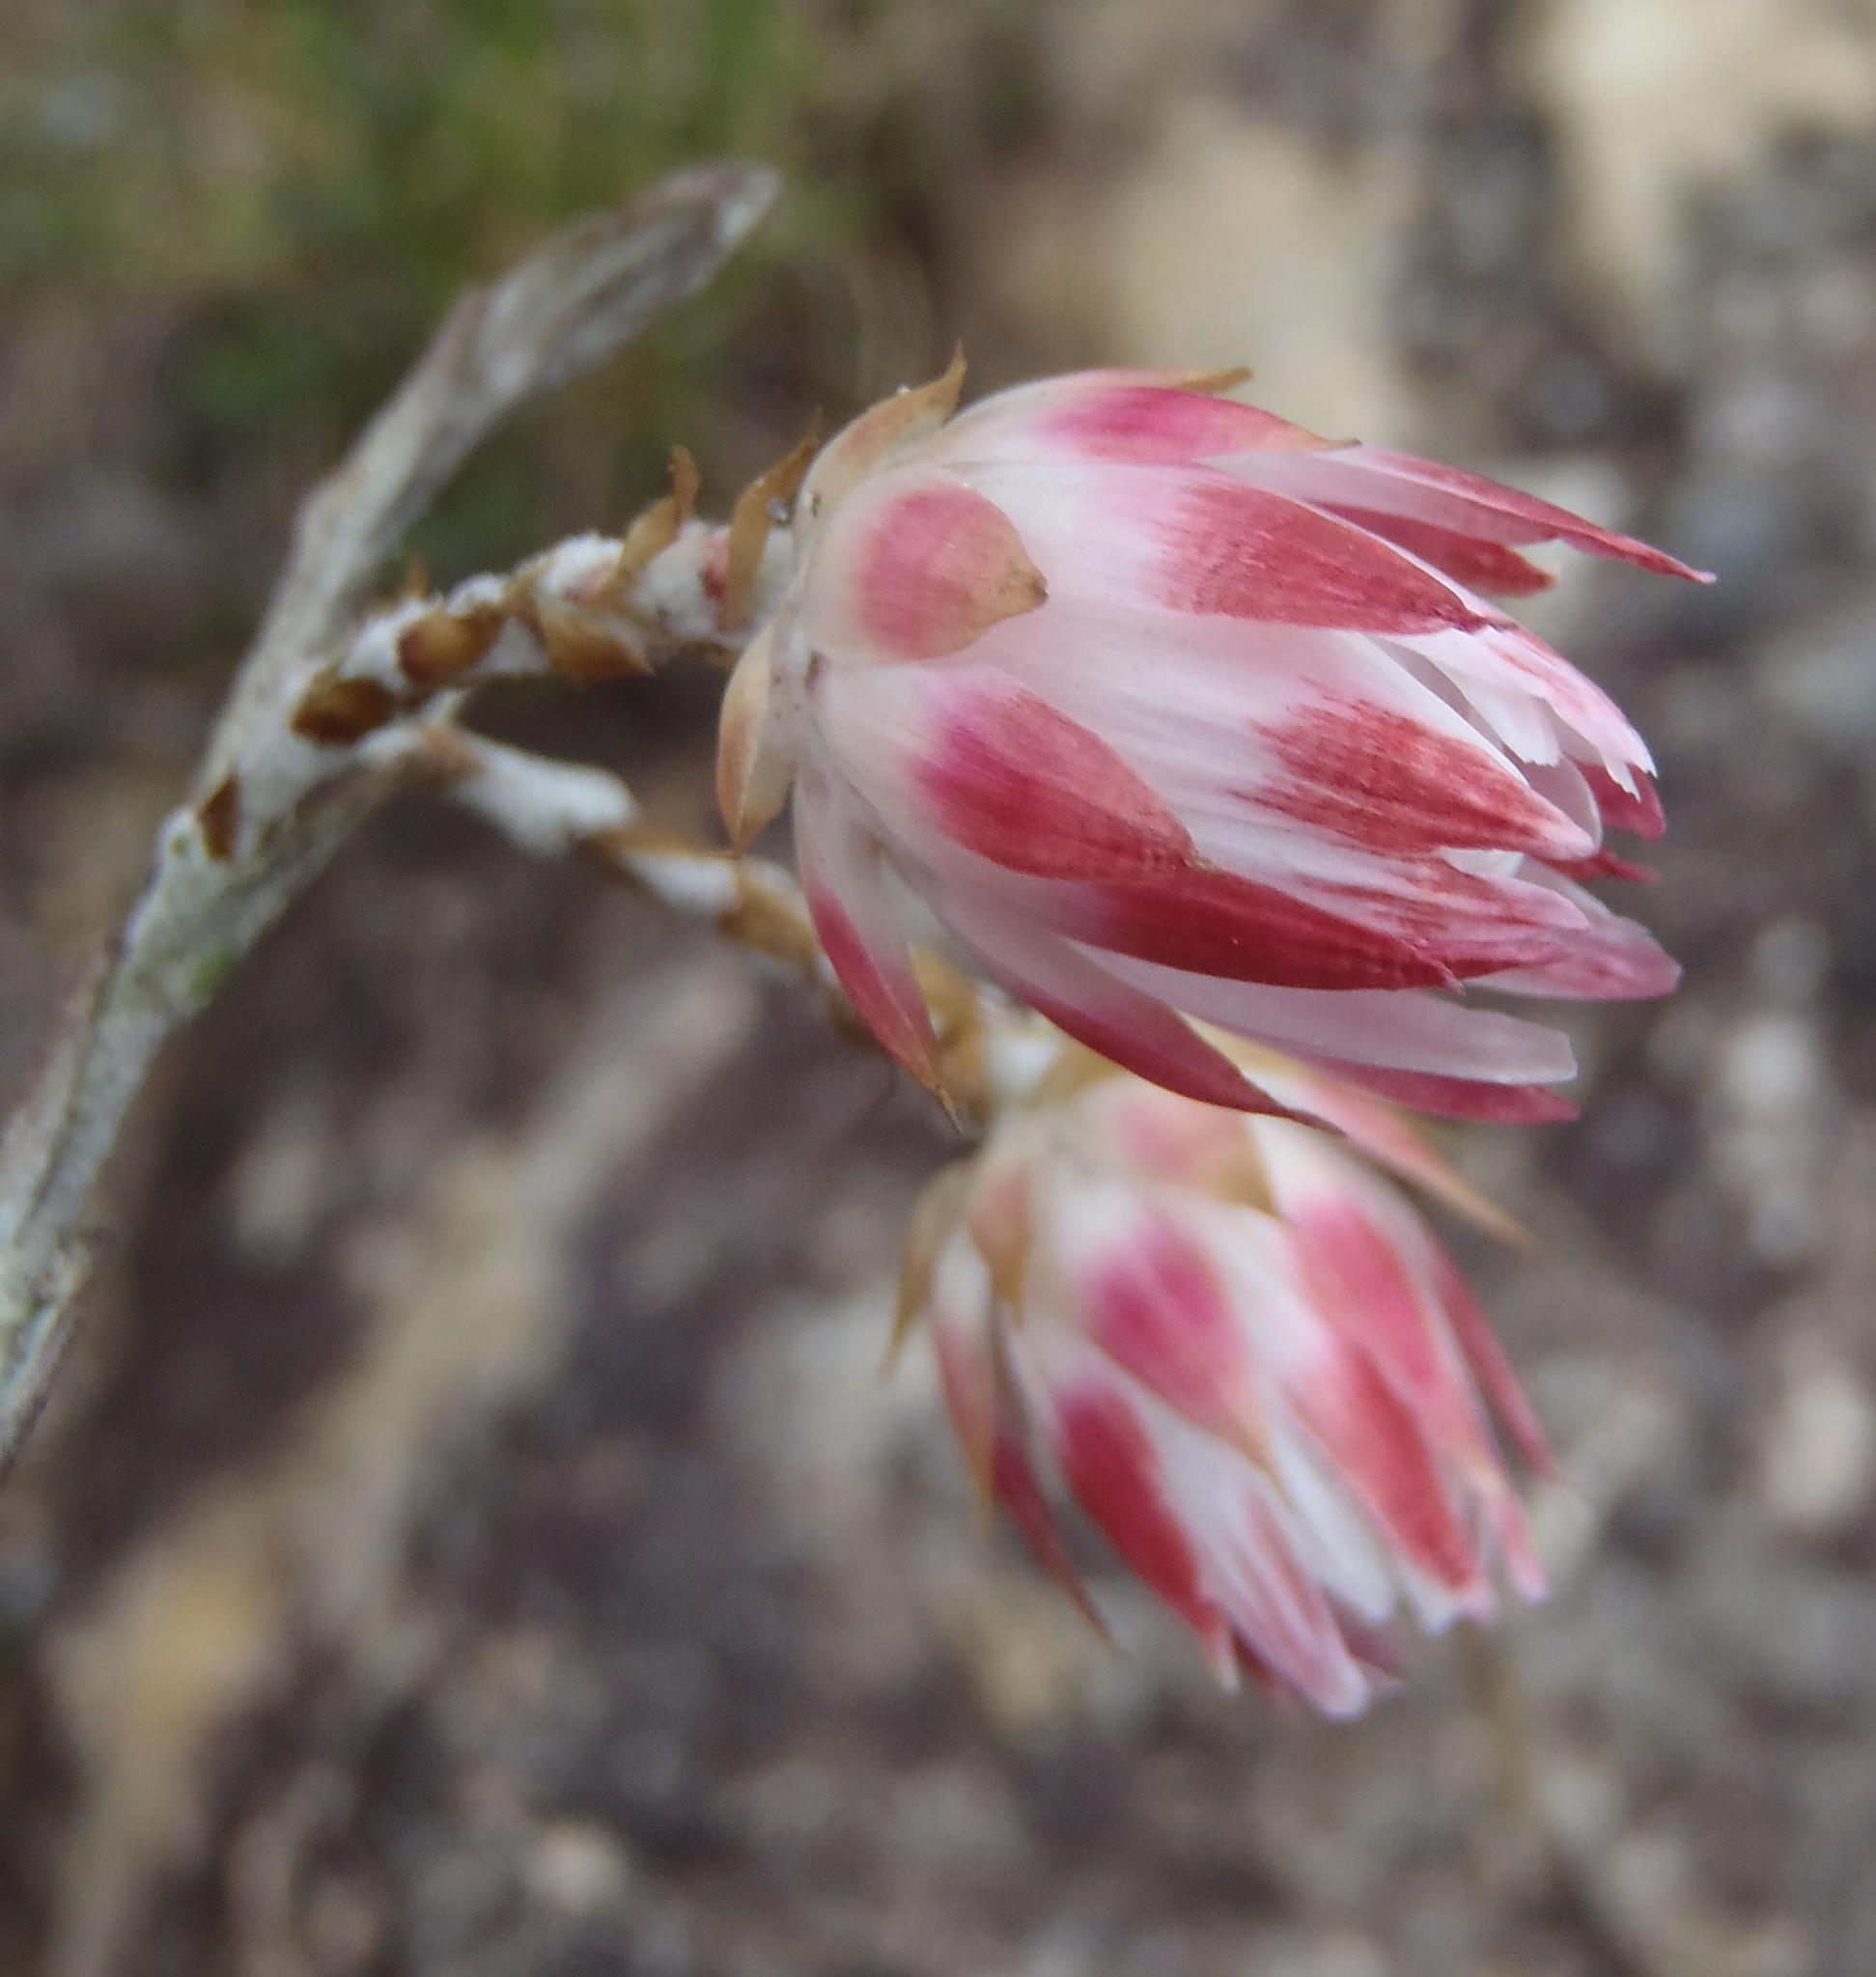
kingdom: Plantae
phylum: Tracheophyta
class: Magnoliopsida
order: Asterales
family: Asteraceae
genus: Syncarpha
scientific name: Syncarpha canescens
